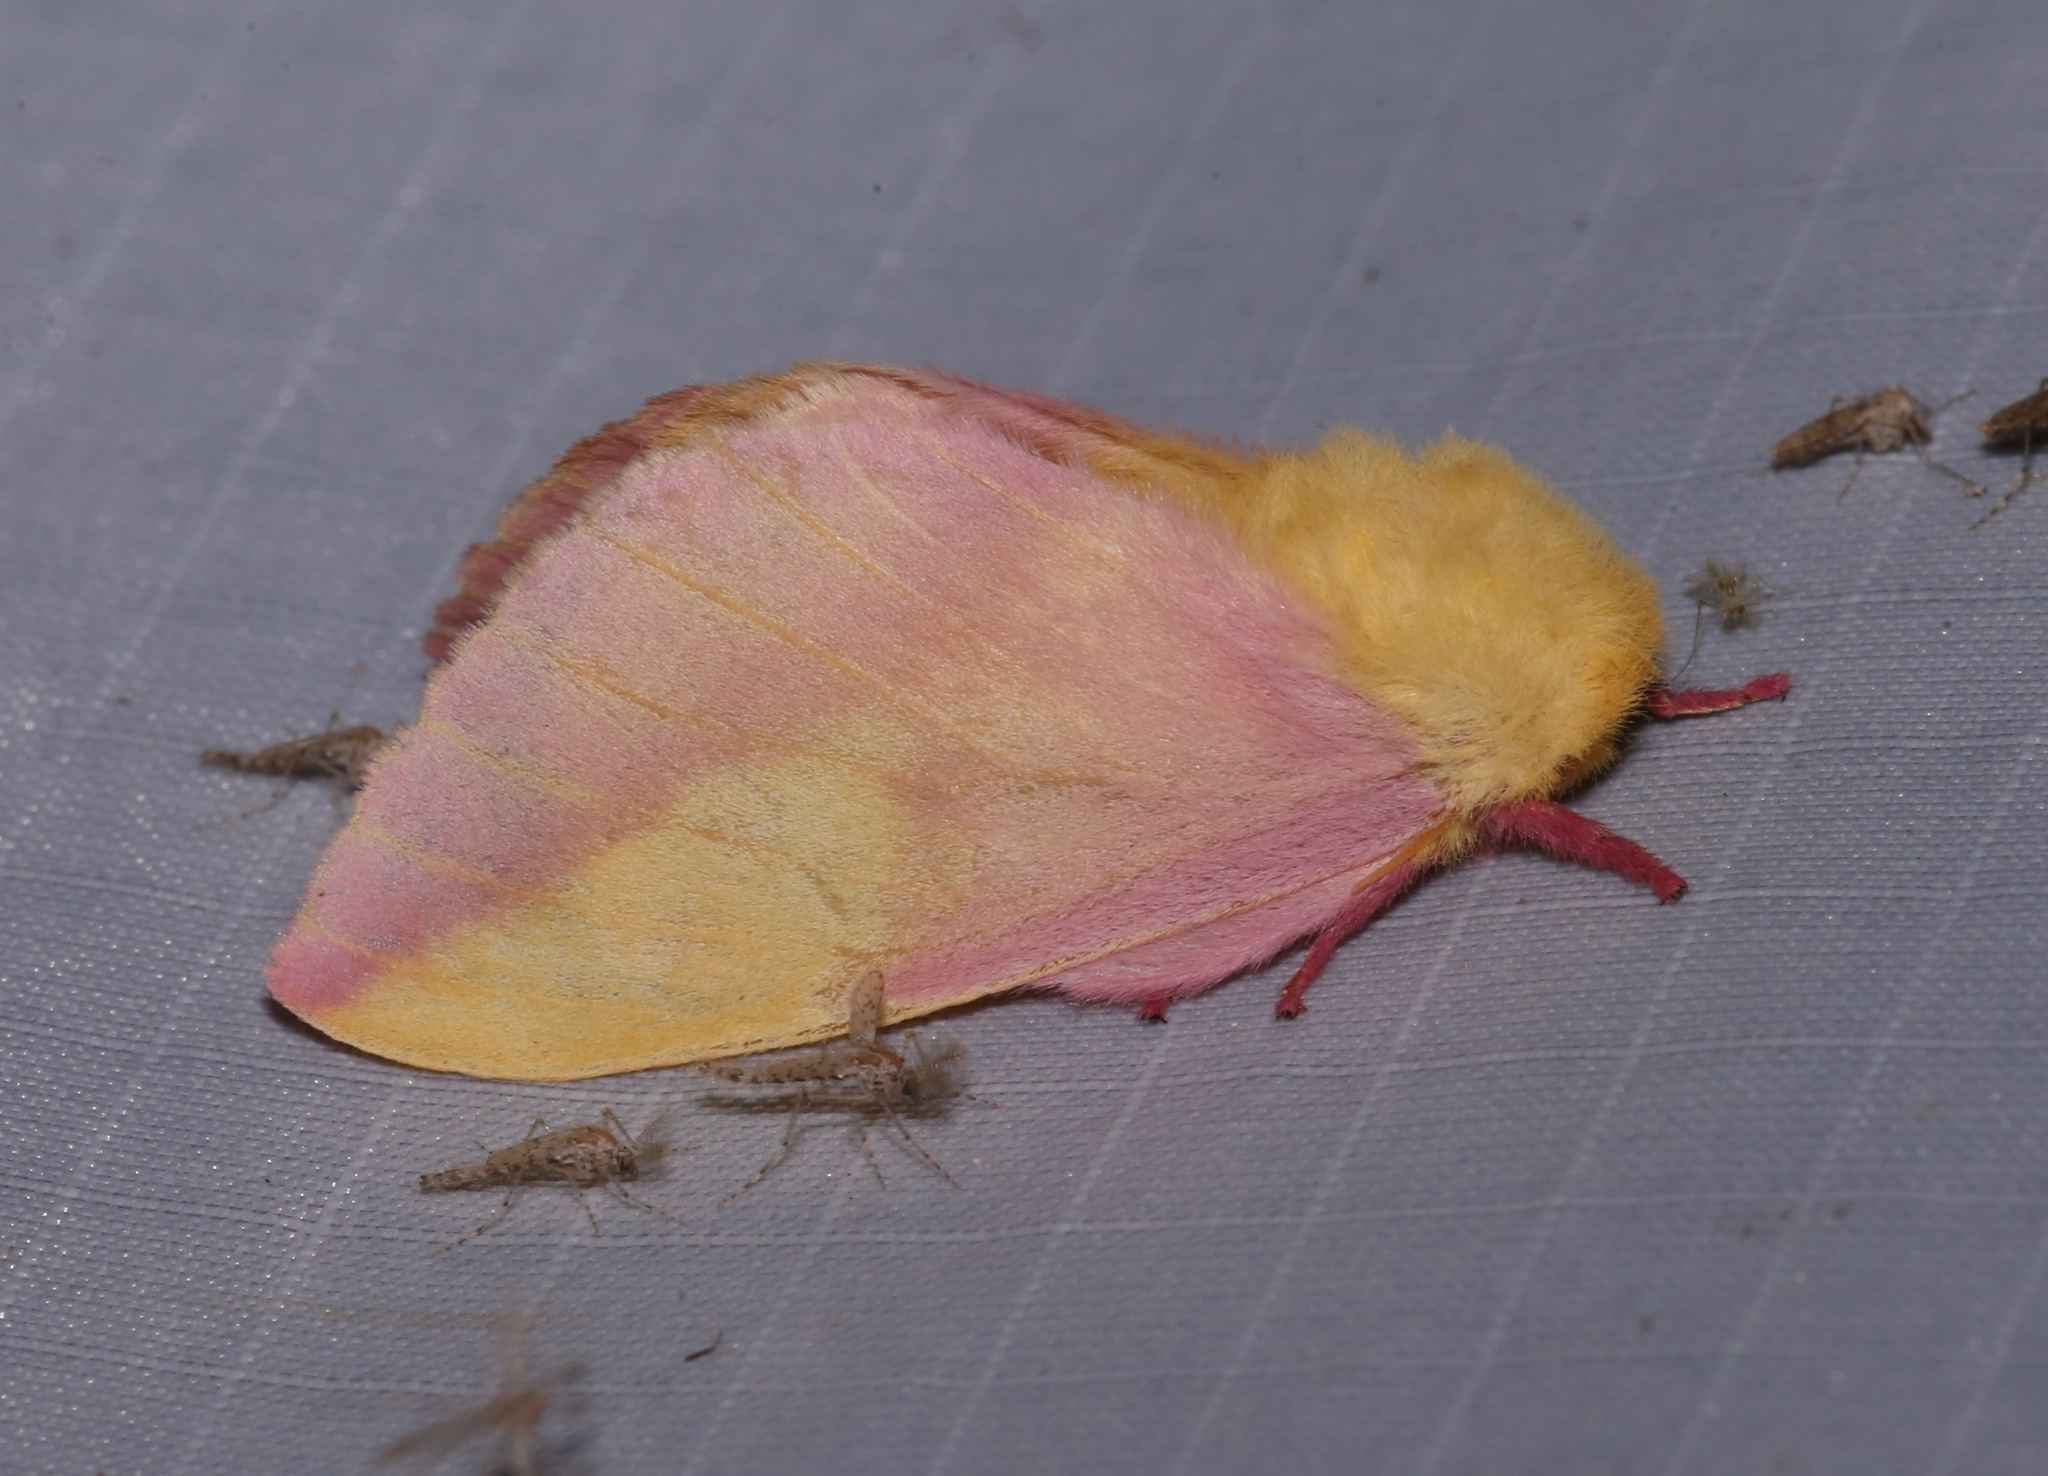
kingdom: Animalia
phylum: Arthropoda
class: Insecta
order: Lepidoptera
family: Saturniidae
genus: Dryocampa
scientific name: Dryocampa rubicunda
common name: Rosy maple moth
